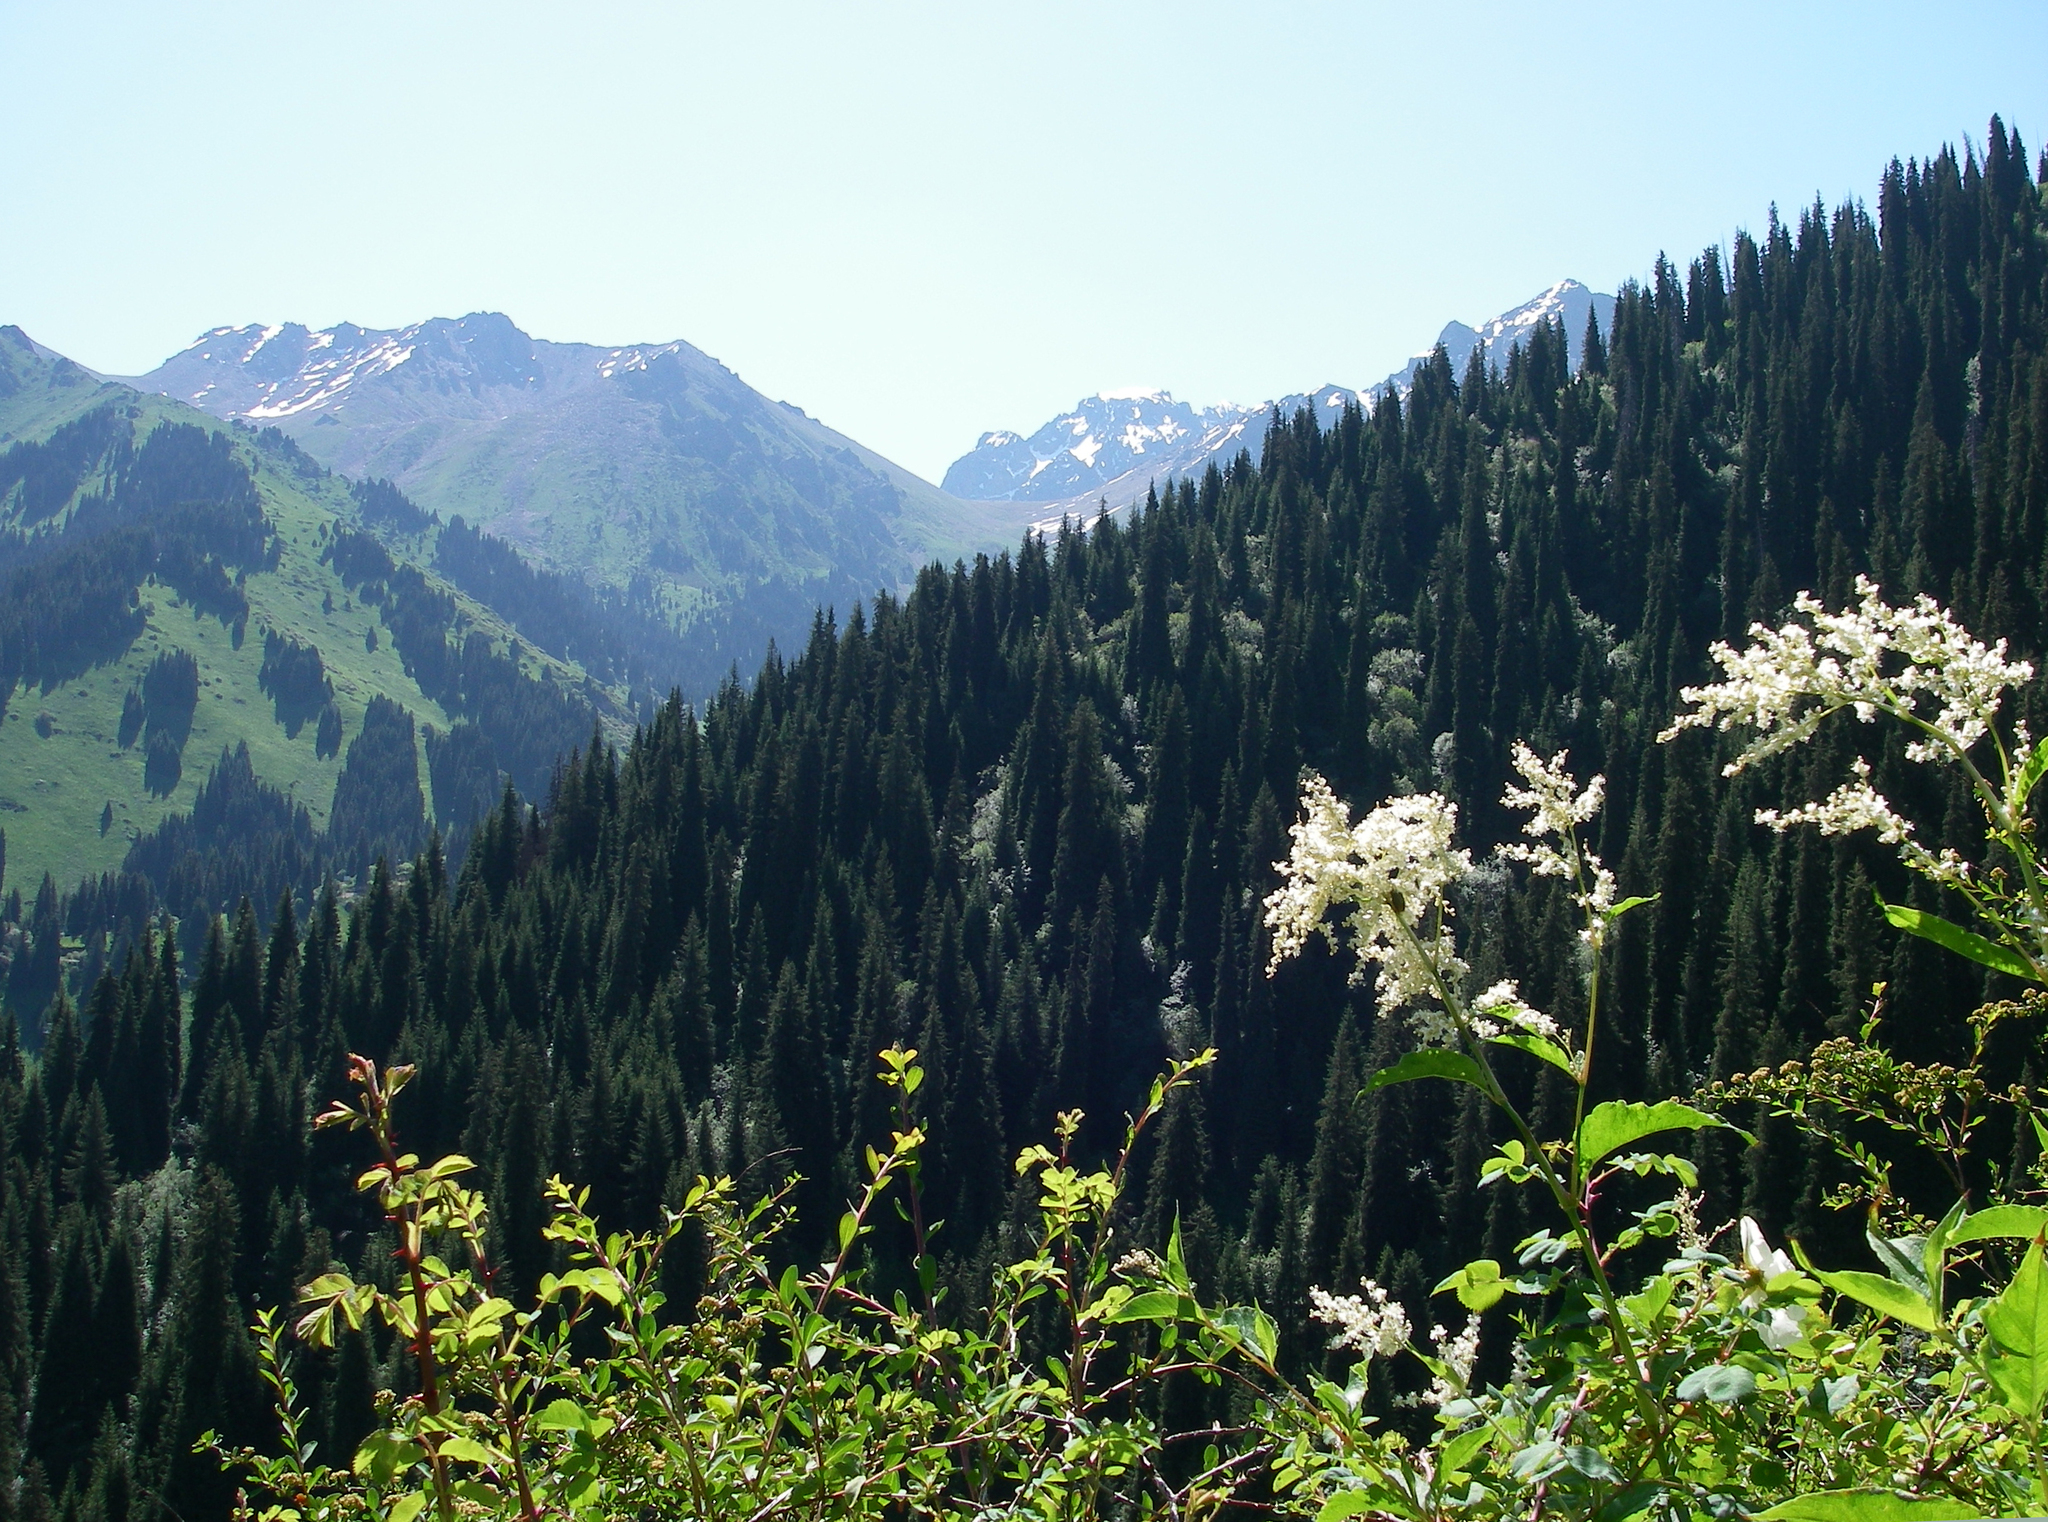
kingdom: Plantae
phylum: Tracheophyta
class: Magnoliopsida
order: Caryophyllales
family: Polygonaceae
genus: Koenigia
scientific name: Koenigia alpina
